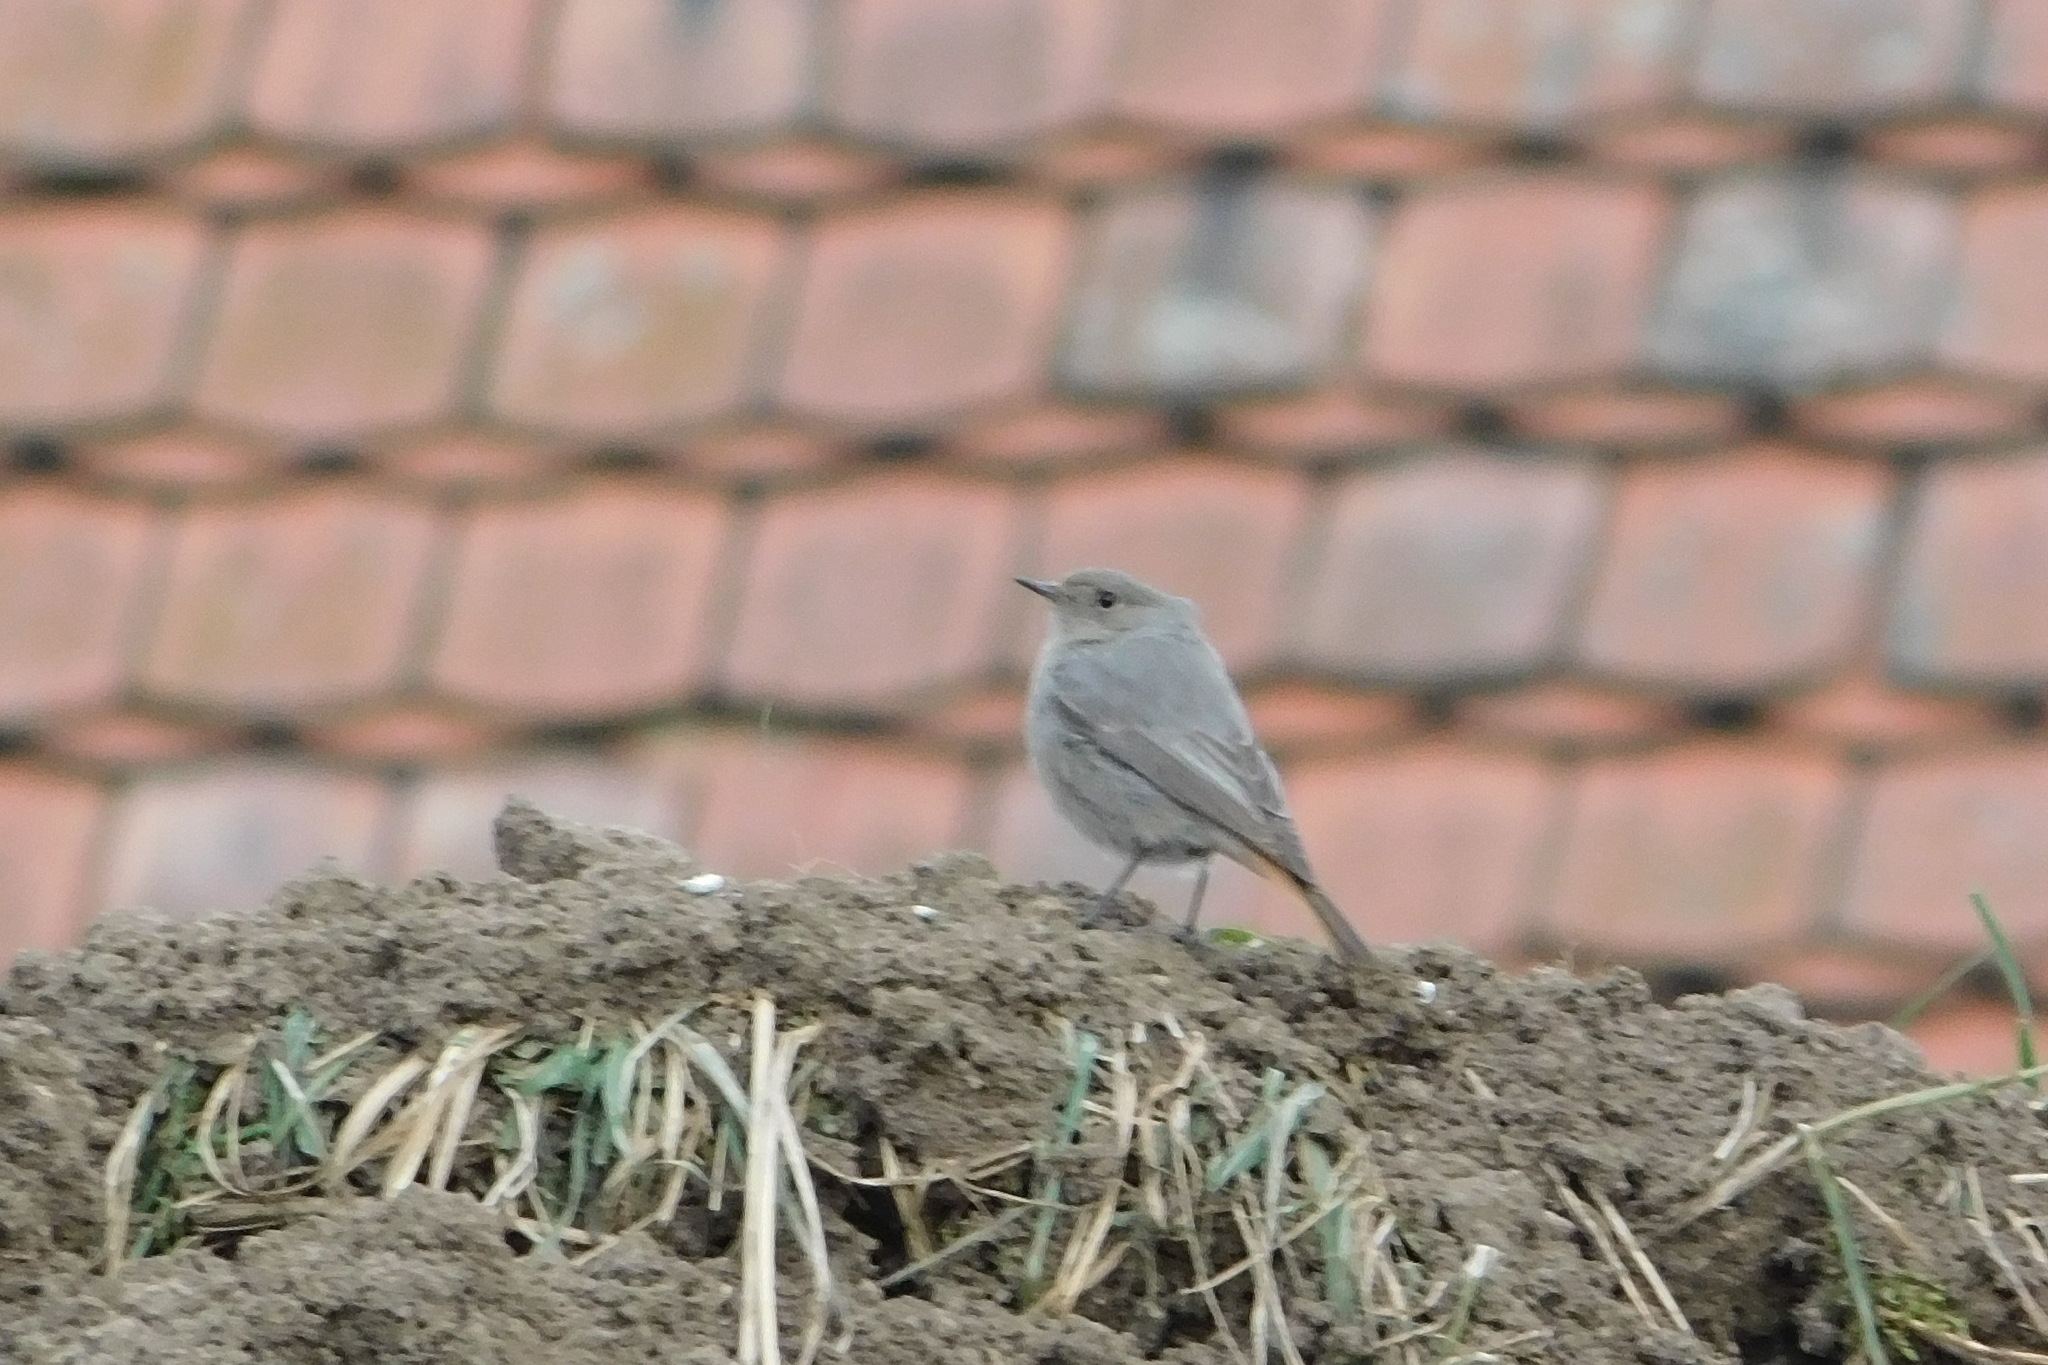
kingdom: Animalia
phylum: Chordata
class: Aves
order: Passeriformes
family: Muscicapidae
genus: Phoenicurus
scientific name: Phoenicurus ochruros
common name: Black redstart
